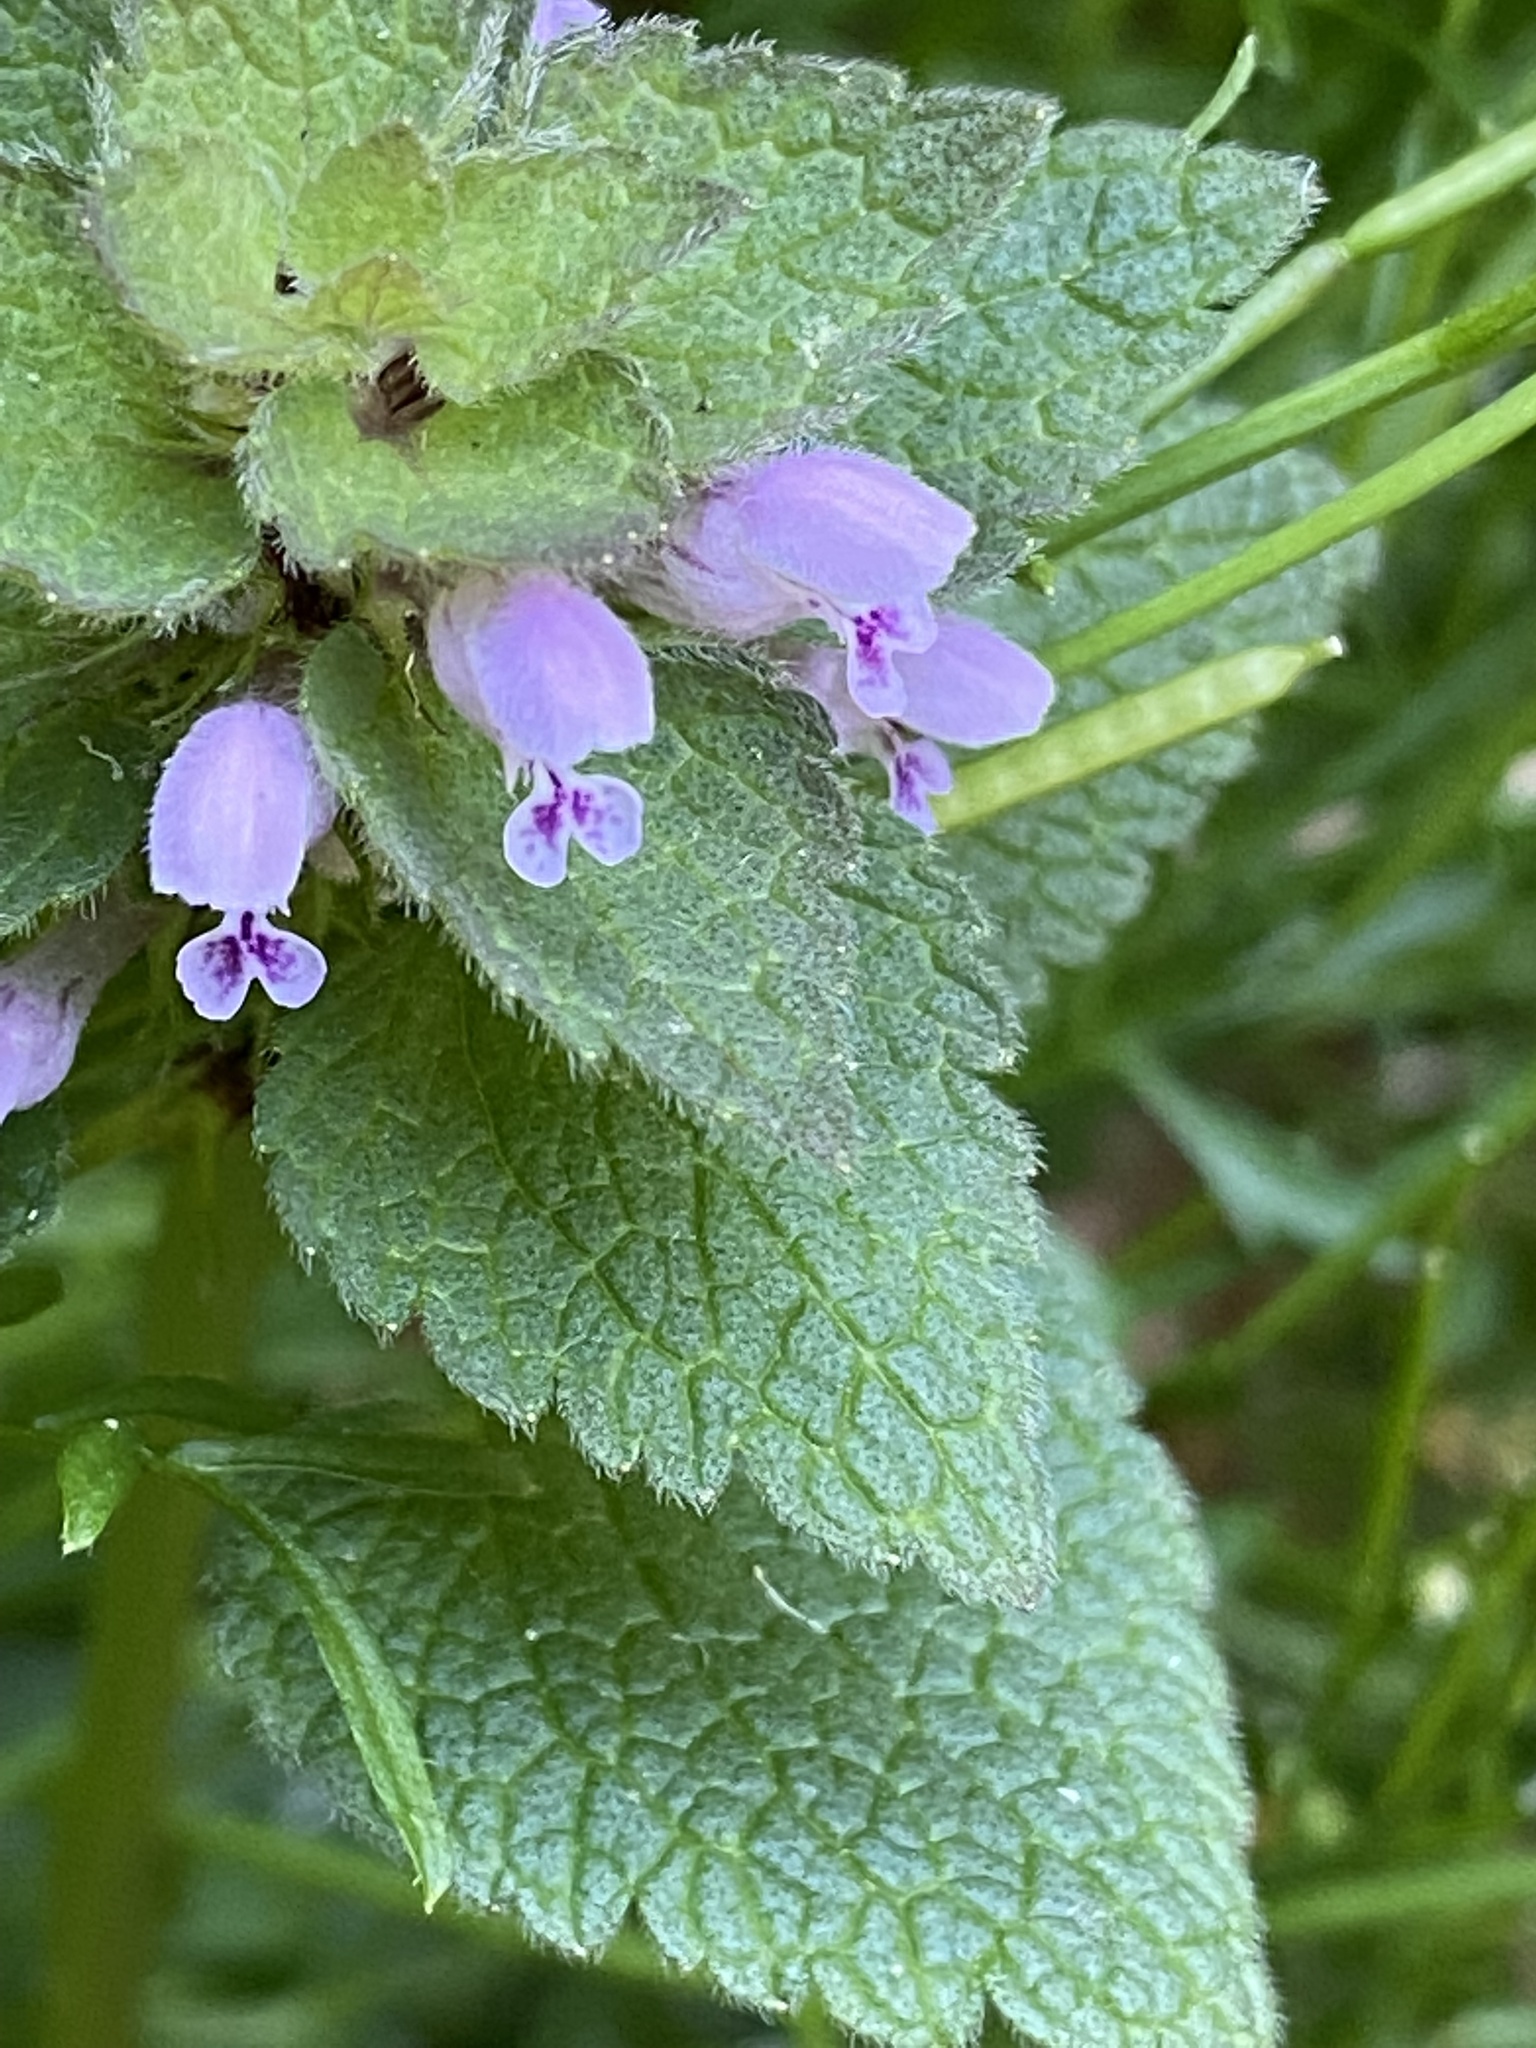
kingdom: Plantae
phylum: Tracheophyta
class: Magnoliopsida
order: Lamiales
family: Lamiaceae
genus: Lamium
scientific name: Lamium purpureum
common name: Red dead-nettle
